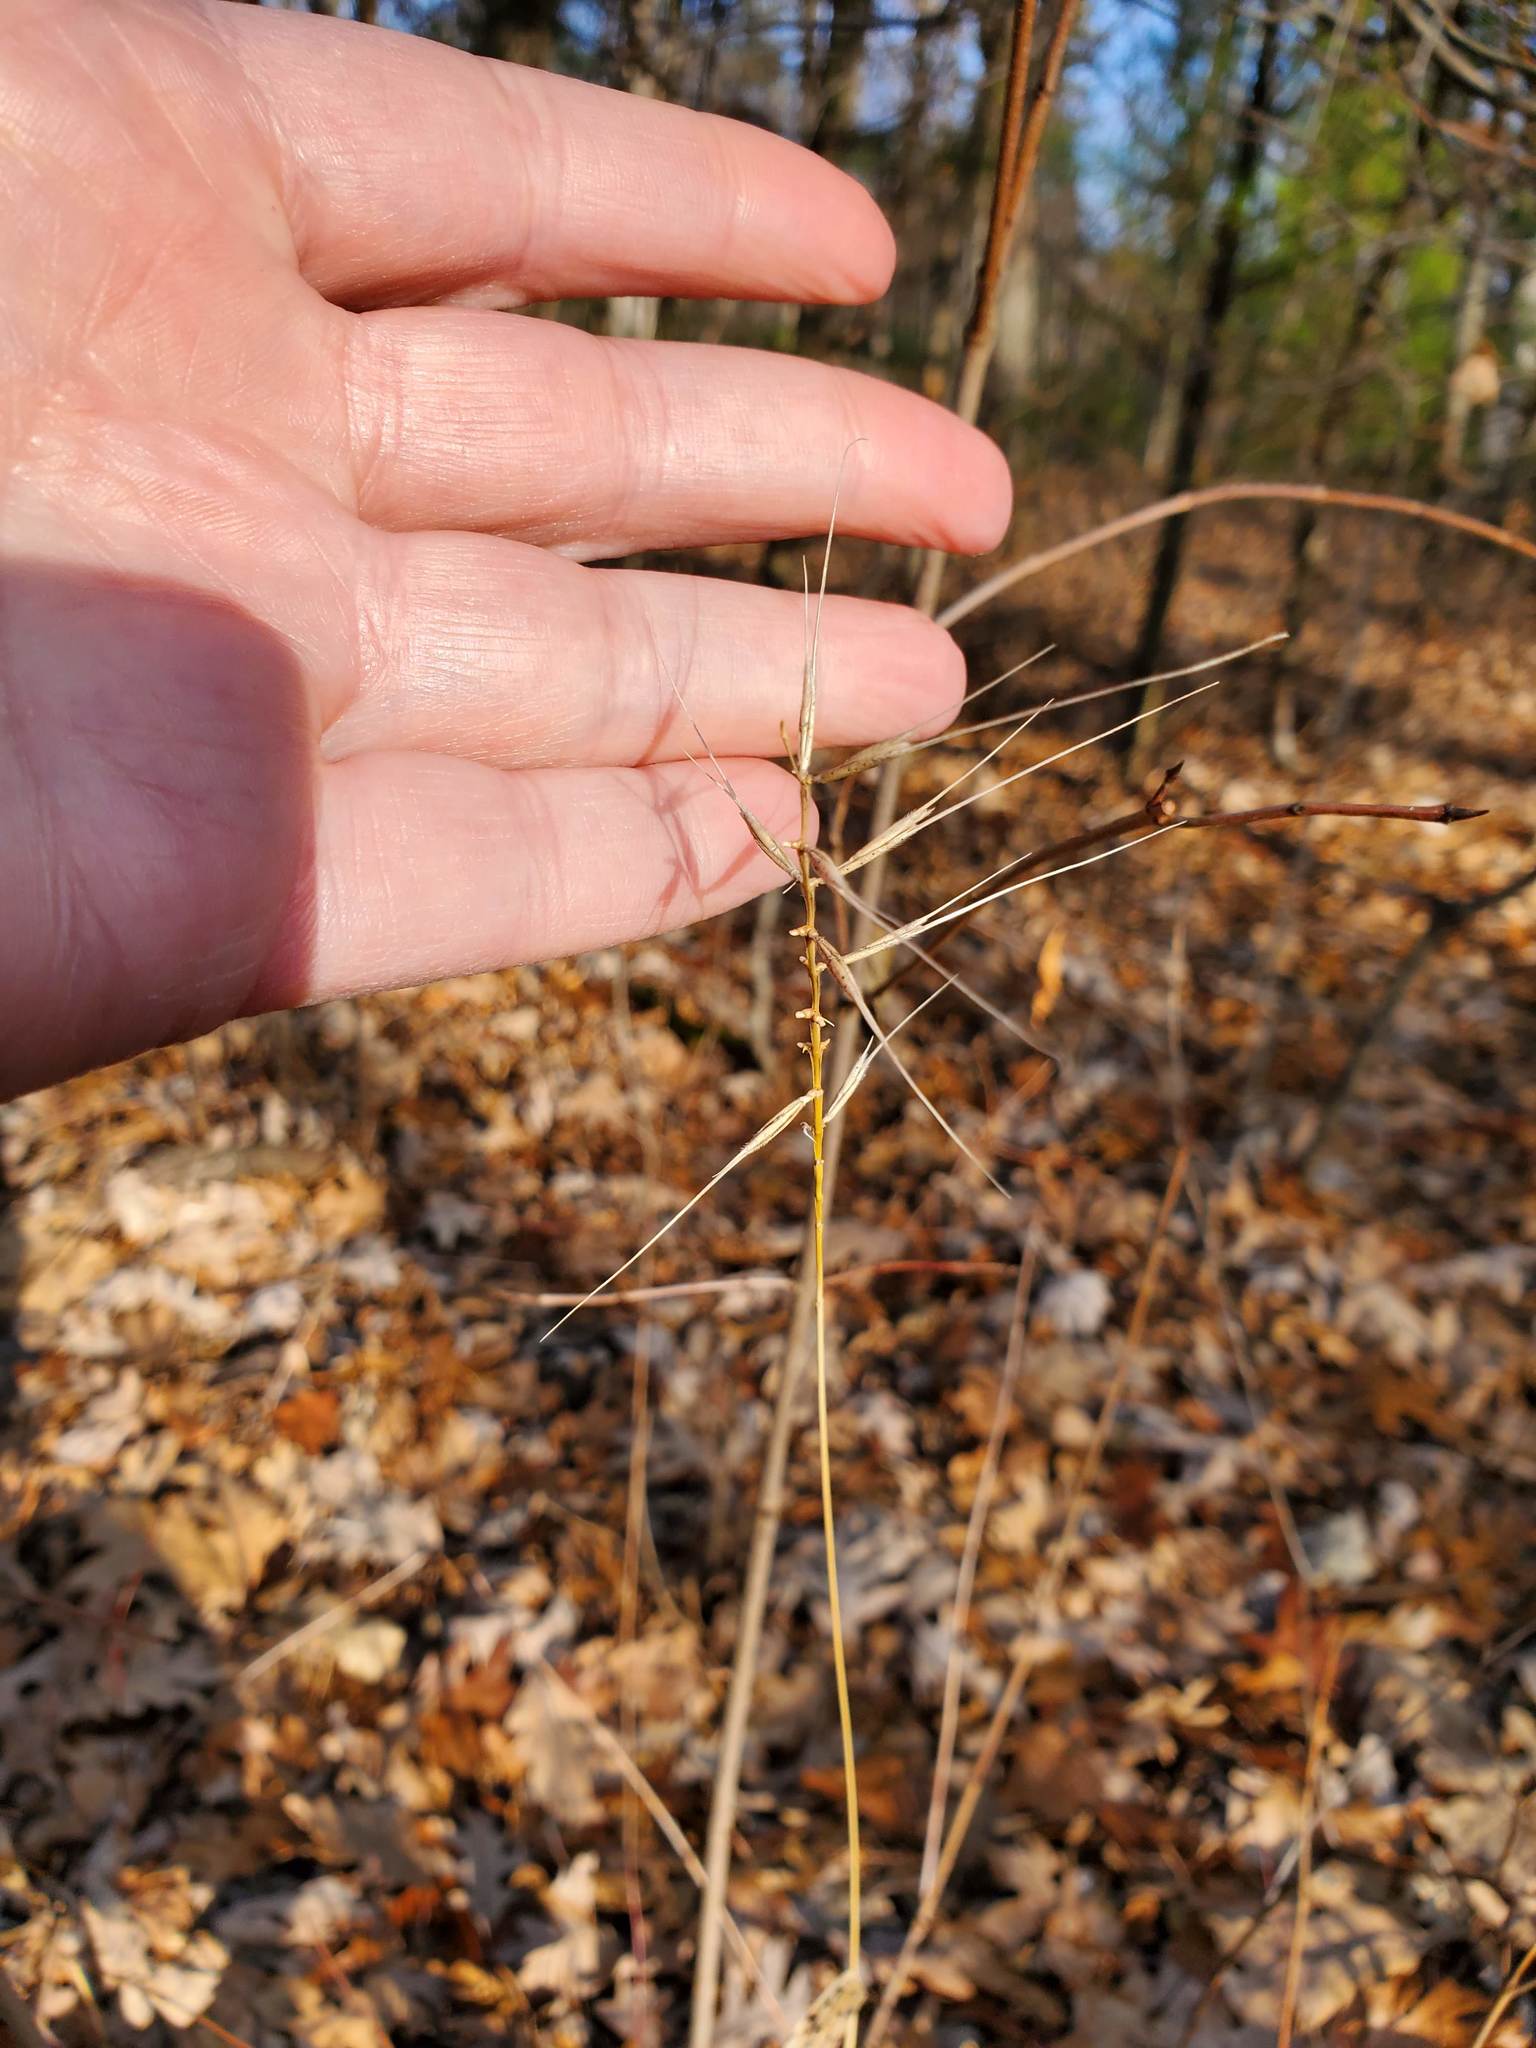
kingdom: Plantae
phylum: Tracheophyta
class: Liliopsida
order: Poales
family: Poaceae
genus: Elymus
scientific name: Elymus hystrix
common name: Bottlebrush grass
